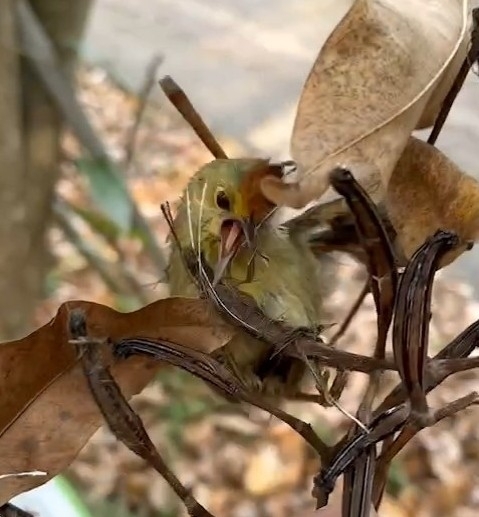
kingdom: Animalia
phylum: Chordata
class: Aves
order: Passeriformes
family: Timaliidae
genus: Stachyridopsis
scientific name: Stachyridopsis ruficeps
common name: Rufous-capped babbler
